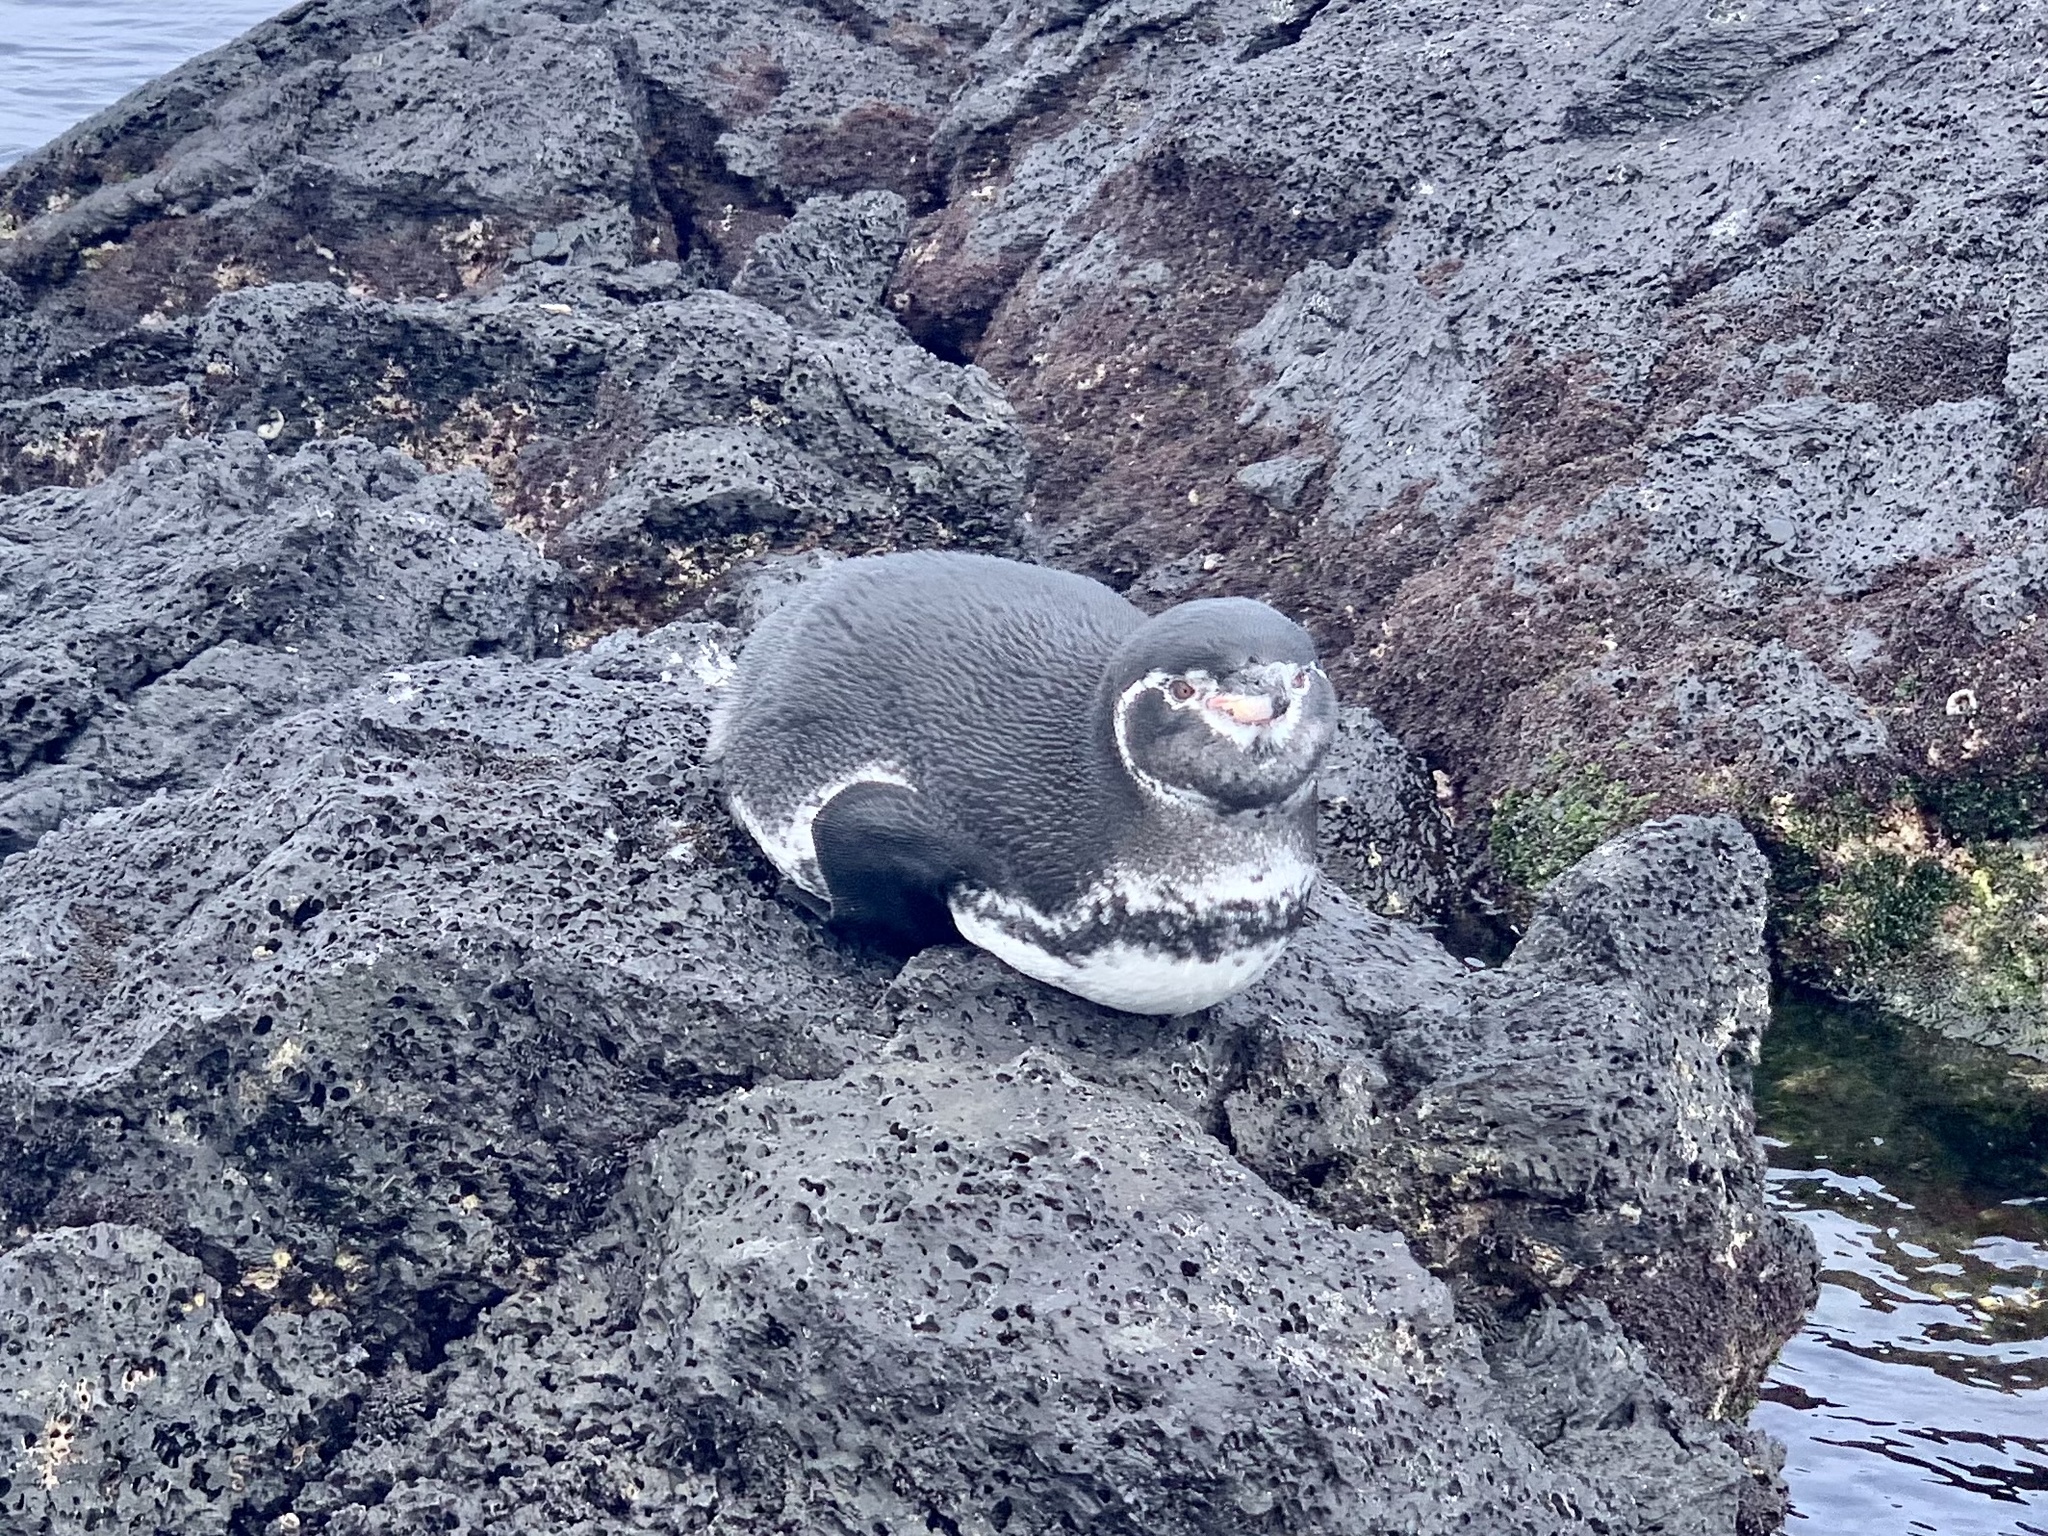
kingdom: Animalia
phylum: Chordata
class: Aves
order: Sphenisciformes
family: Spheniscidae
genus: Spheniscus
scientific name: Spheniscus mendiculus
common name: Galapagos penguin
